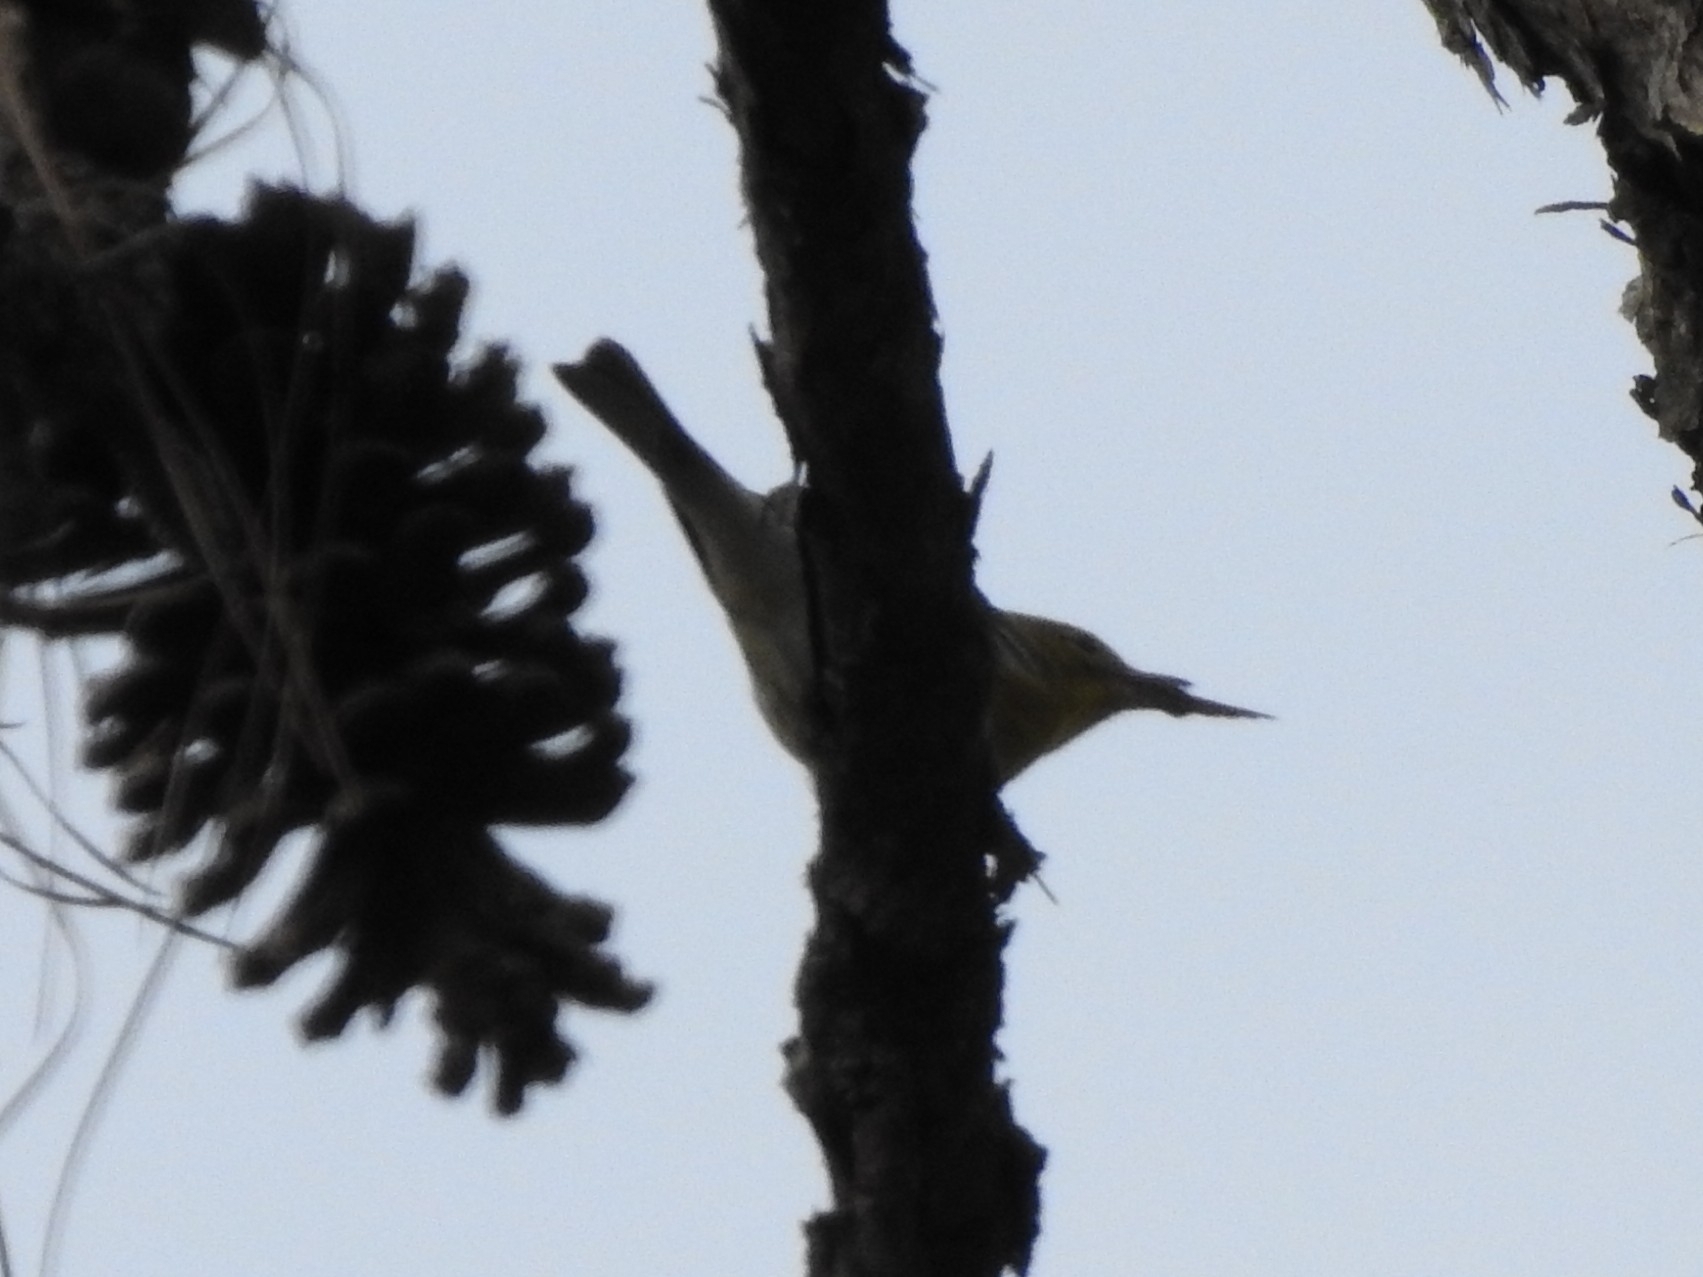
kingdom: Animalia
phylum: Chordata
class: Aves
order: Passeriformes
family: Parulidae
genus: Setophaga
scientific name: Setophaga pinus
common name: Pine warbler
